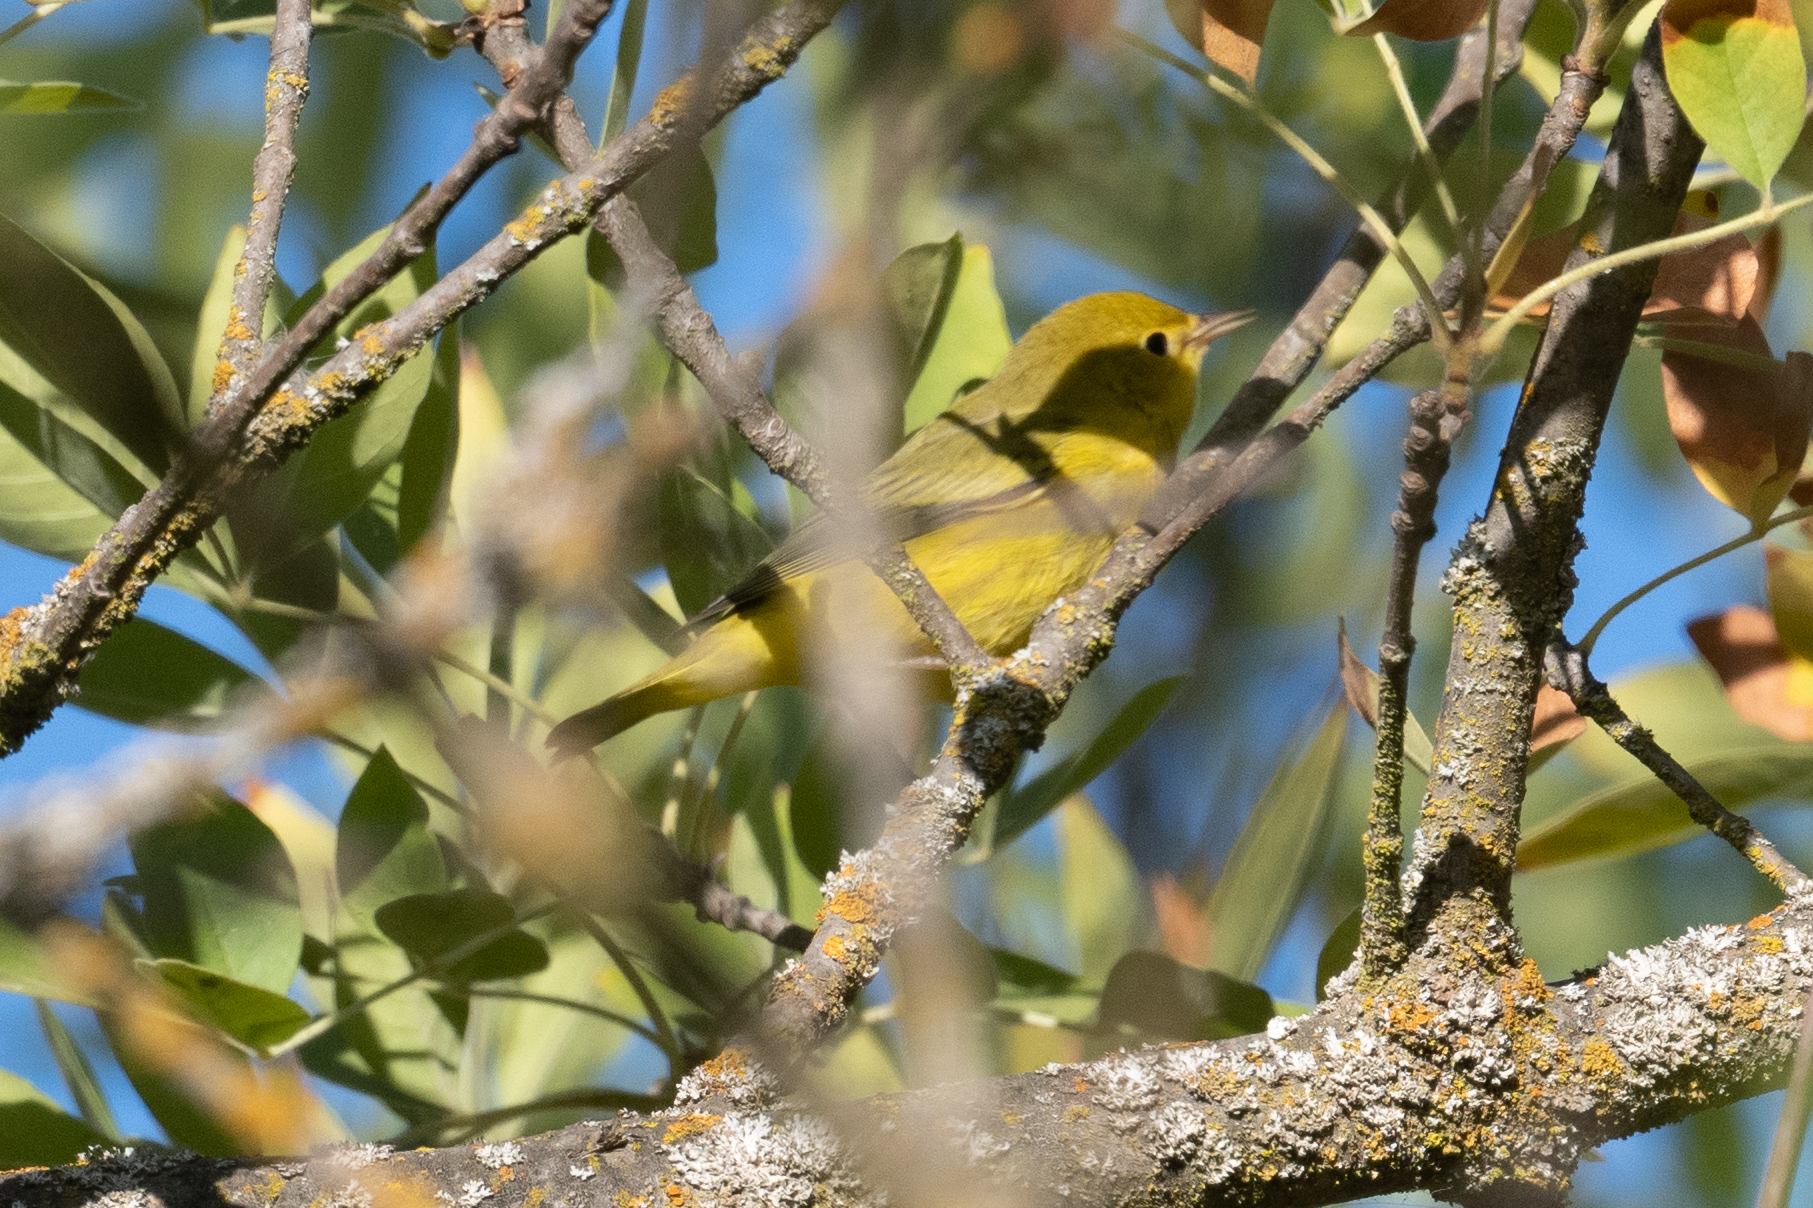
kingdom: Animalia
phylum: Chordata
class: Aves
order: Passeriformes
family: Parulidae
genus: Setophaga
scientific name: Setophaga petechia
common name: Yellow warbler
